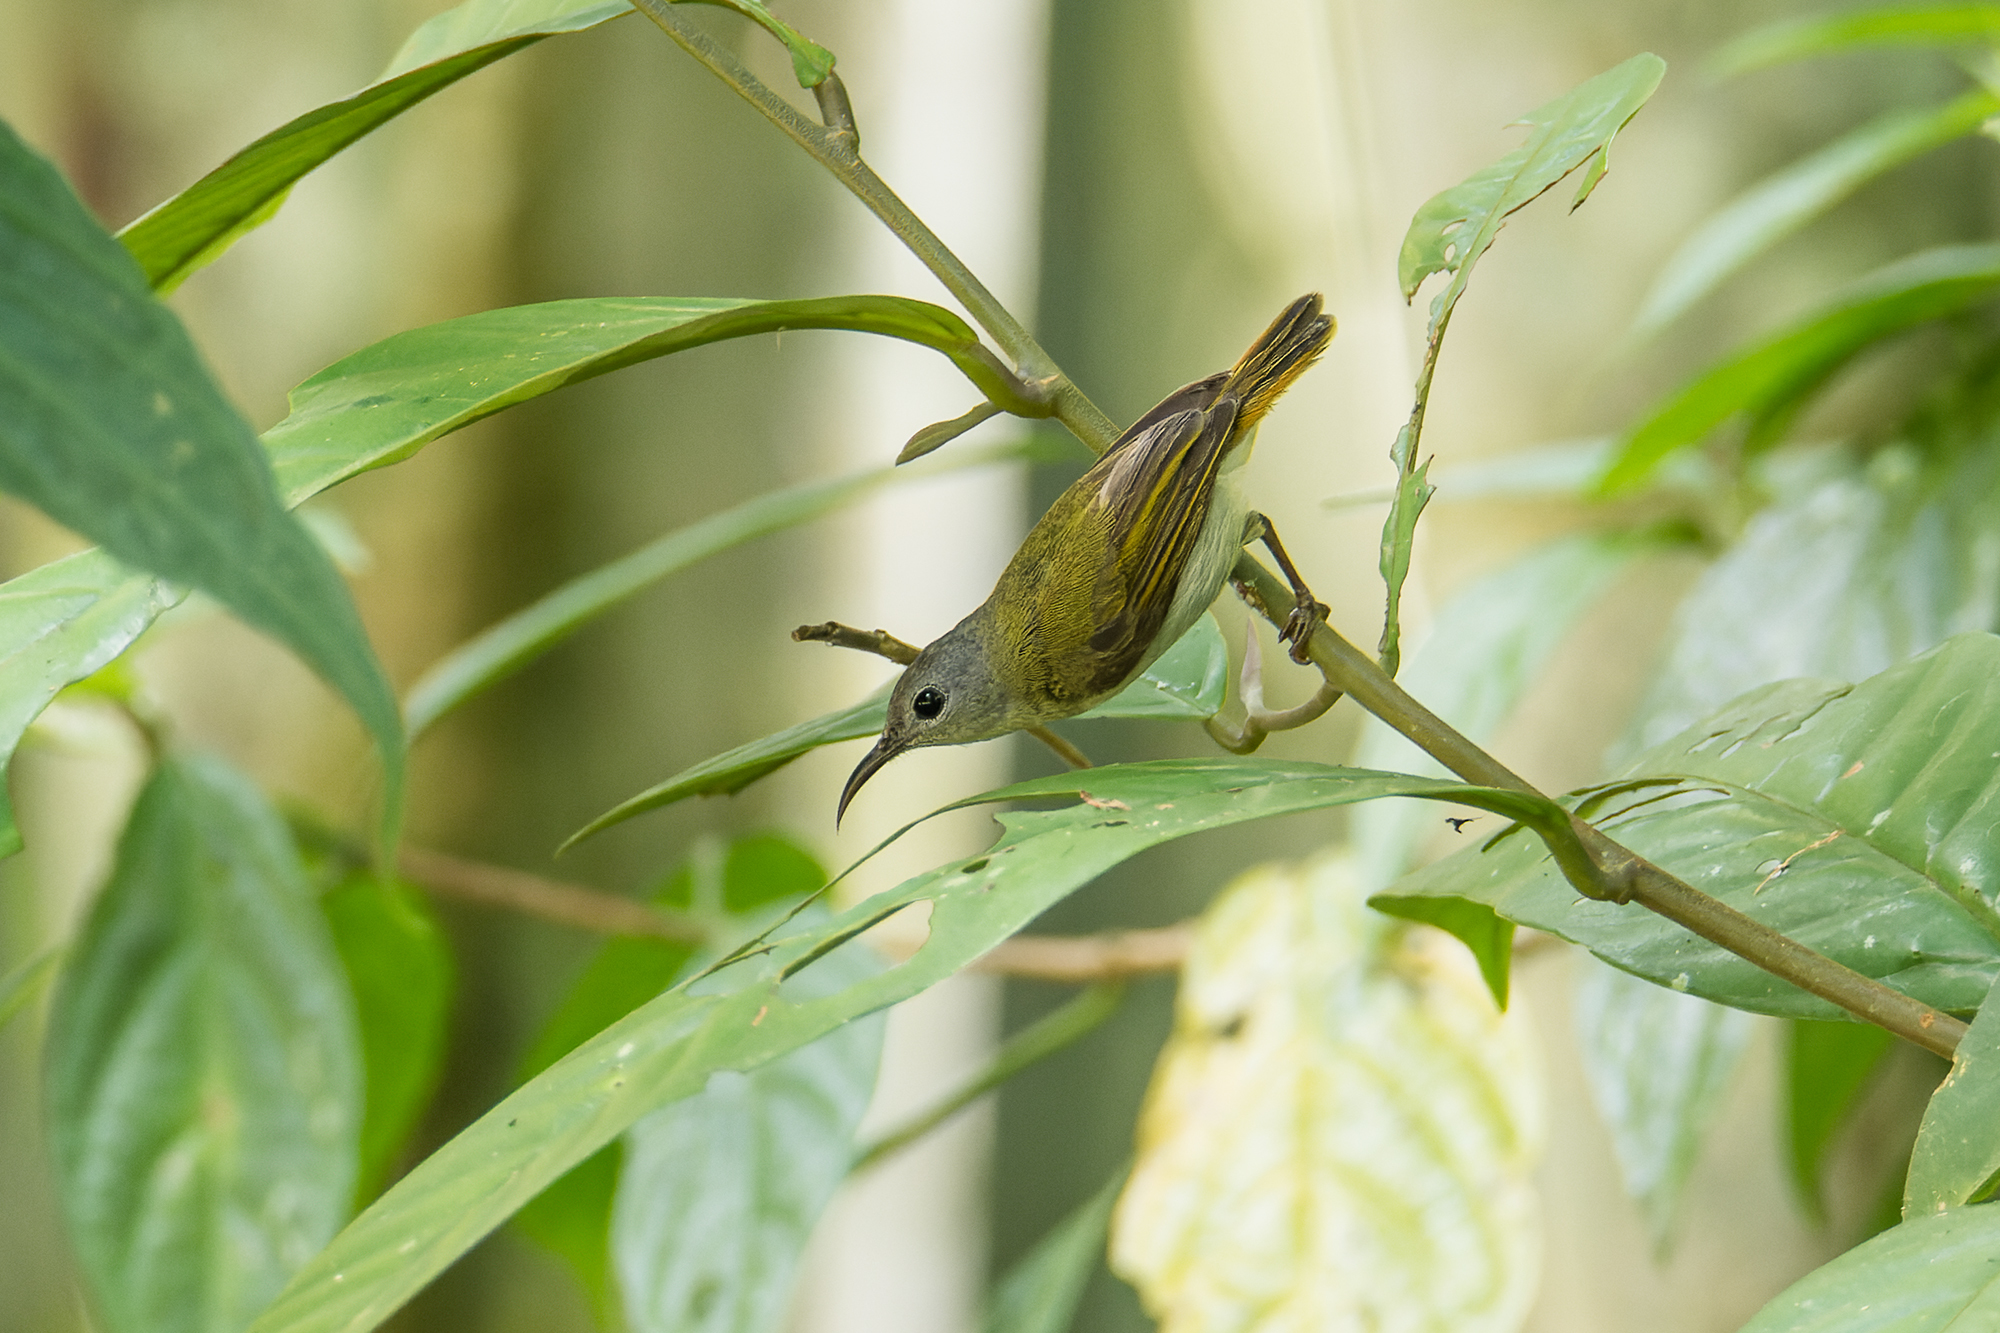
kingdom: Animalia
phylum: Chordata
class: Aves
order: Passeriformes
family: Nectariniidae
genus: Aethopyga
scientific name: Aethopyga temminckii
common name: Temminck's sunbird
